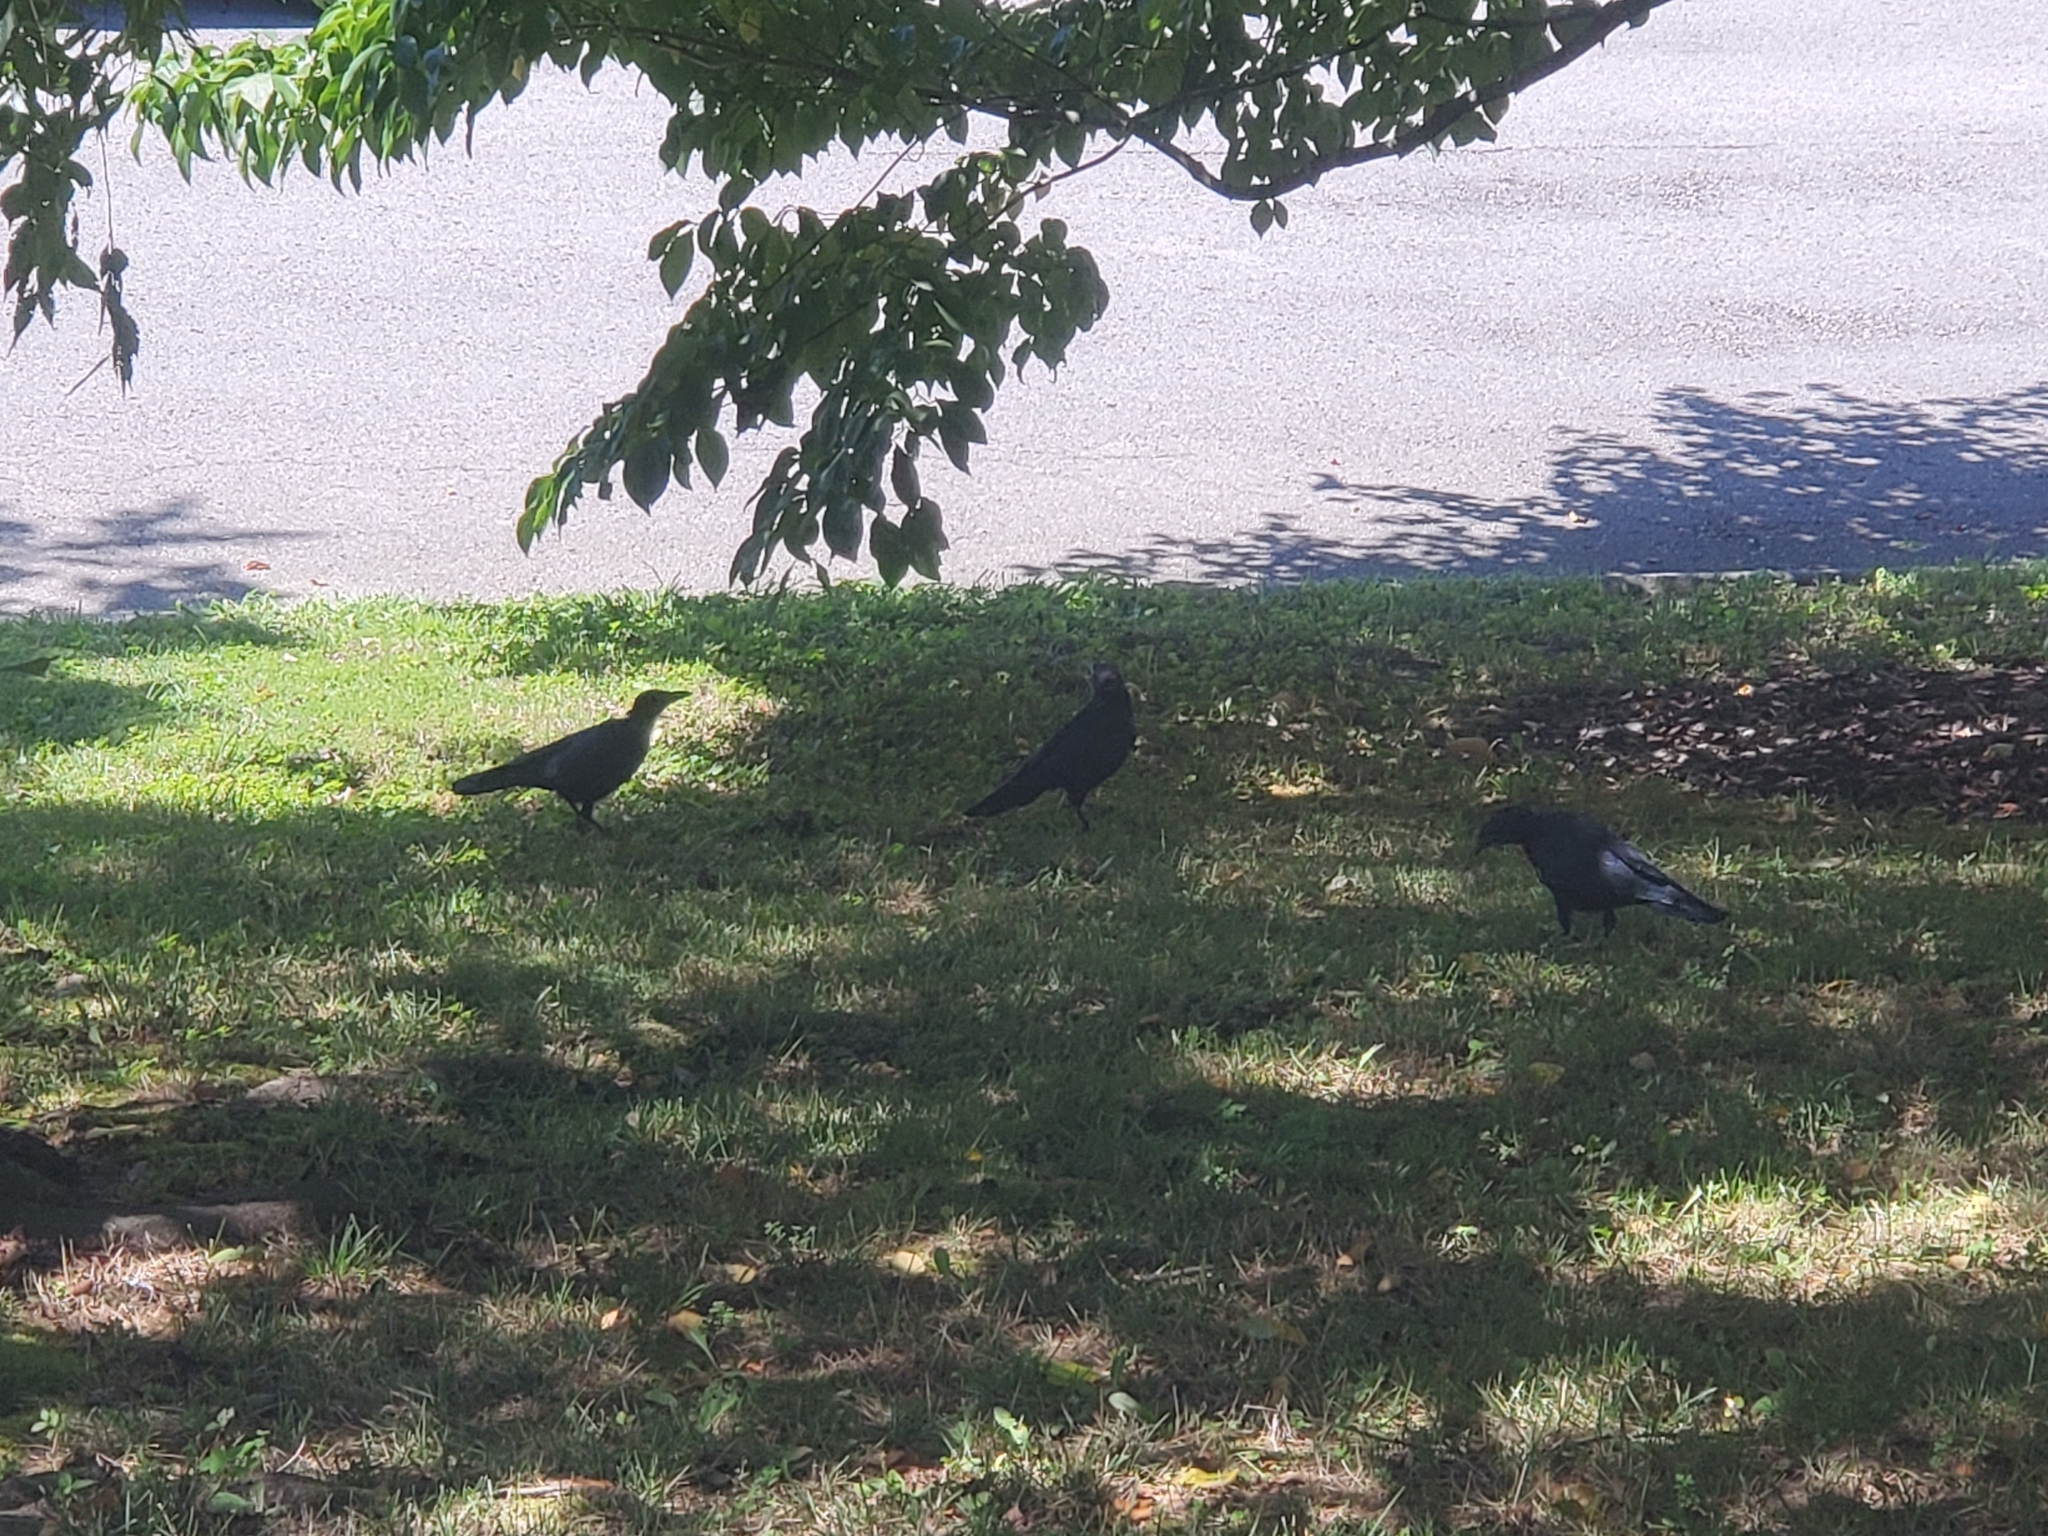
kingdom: Animalia
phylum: Chordata
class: Aves
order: Passeriformes
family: Corvidae
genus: Corvus
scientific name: Corvus brachyrhynchos
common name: American crow
